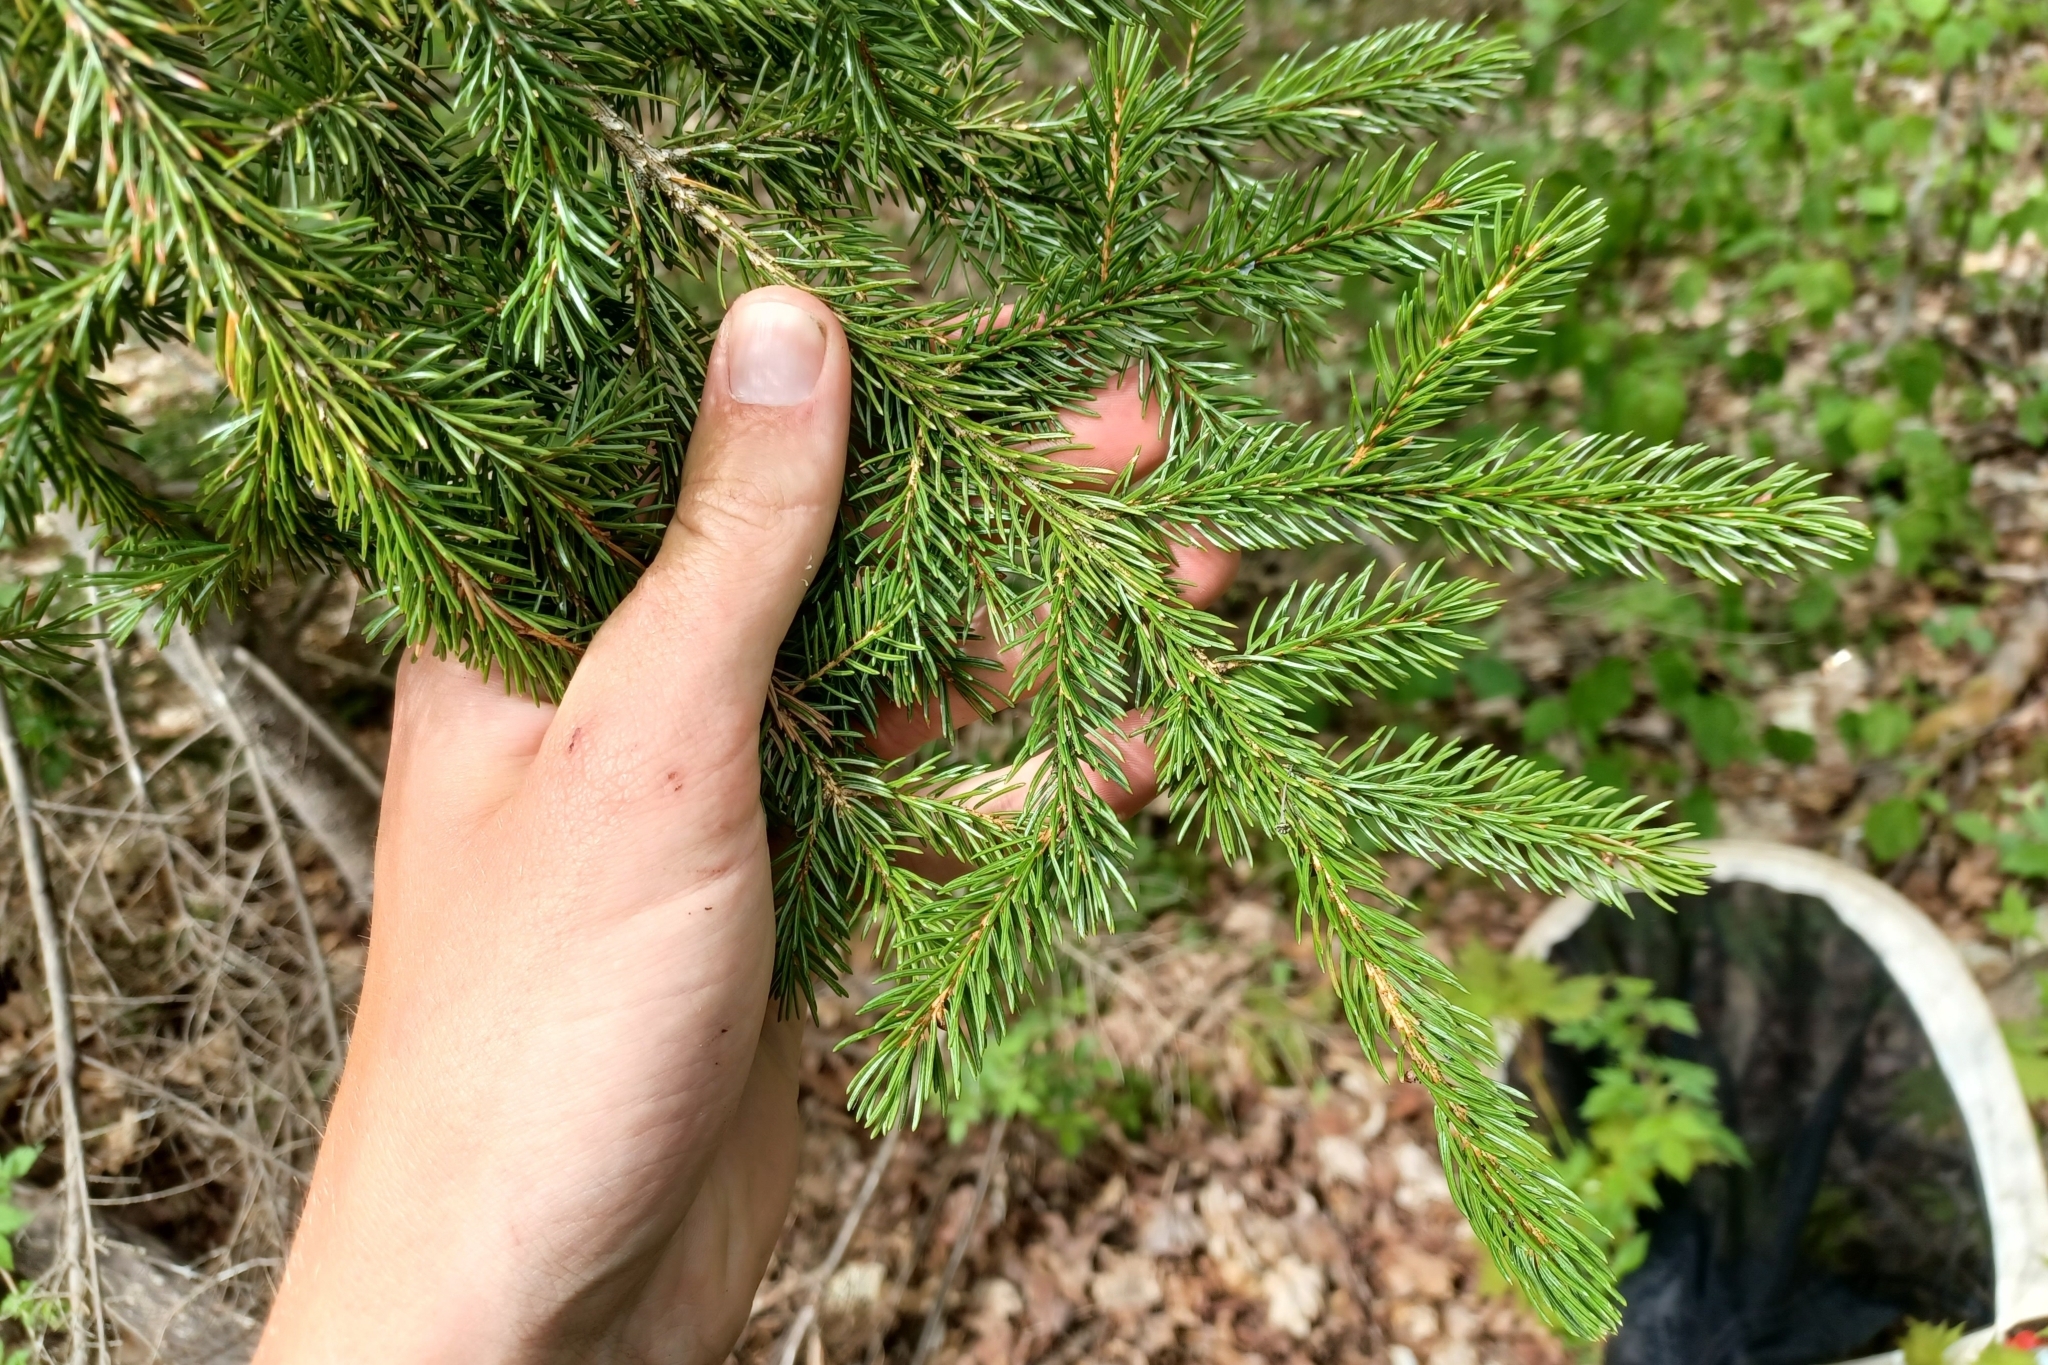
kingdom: Plantae
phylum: Tracheophyta
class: Pinopsida
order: Pinales
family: Pinaceae
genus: Picea
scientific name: Picea rubens
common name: Red spruce
